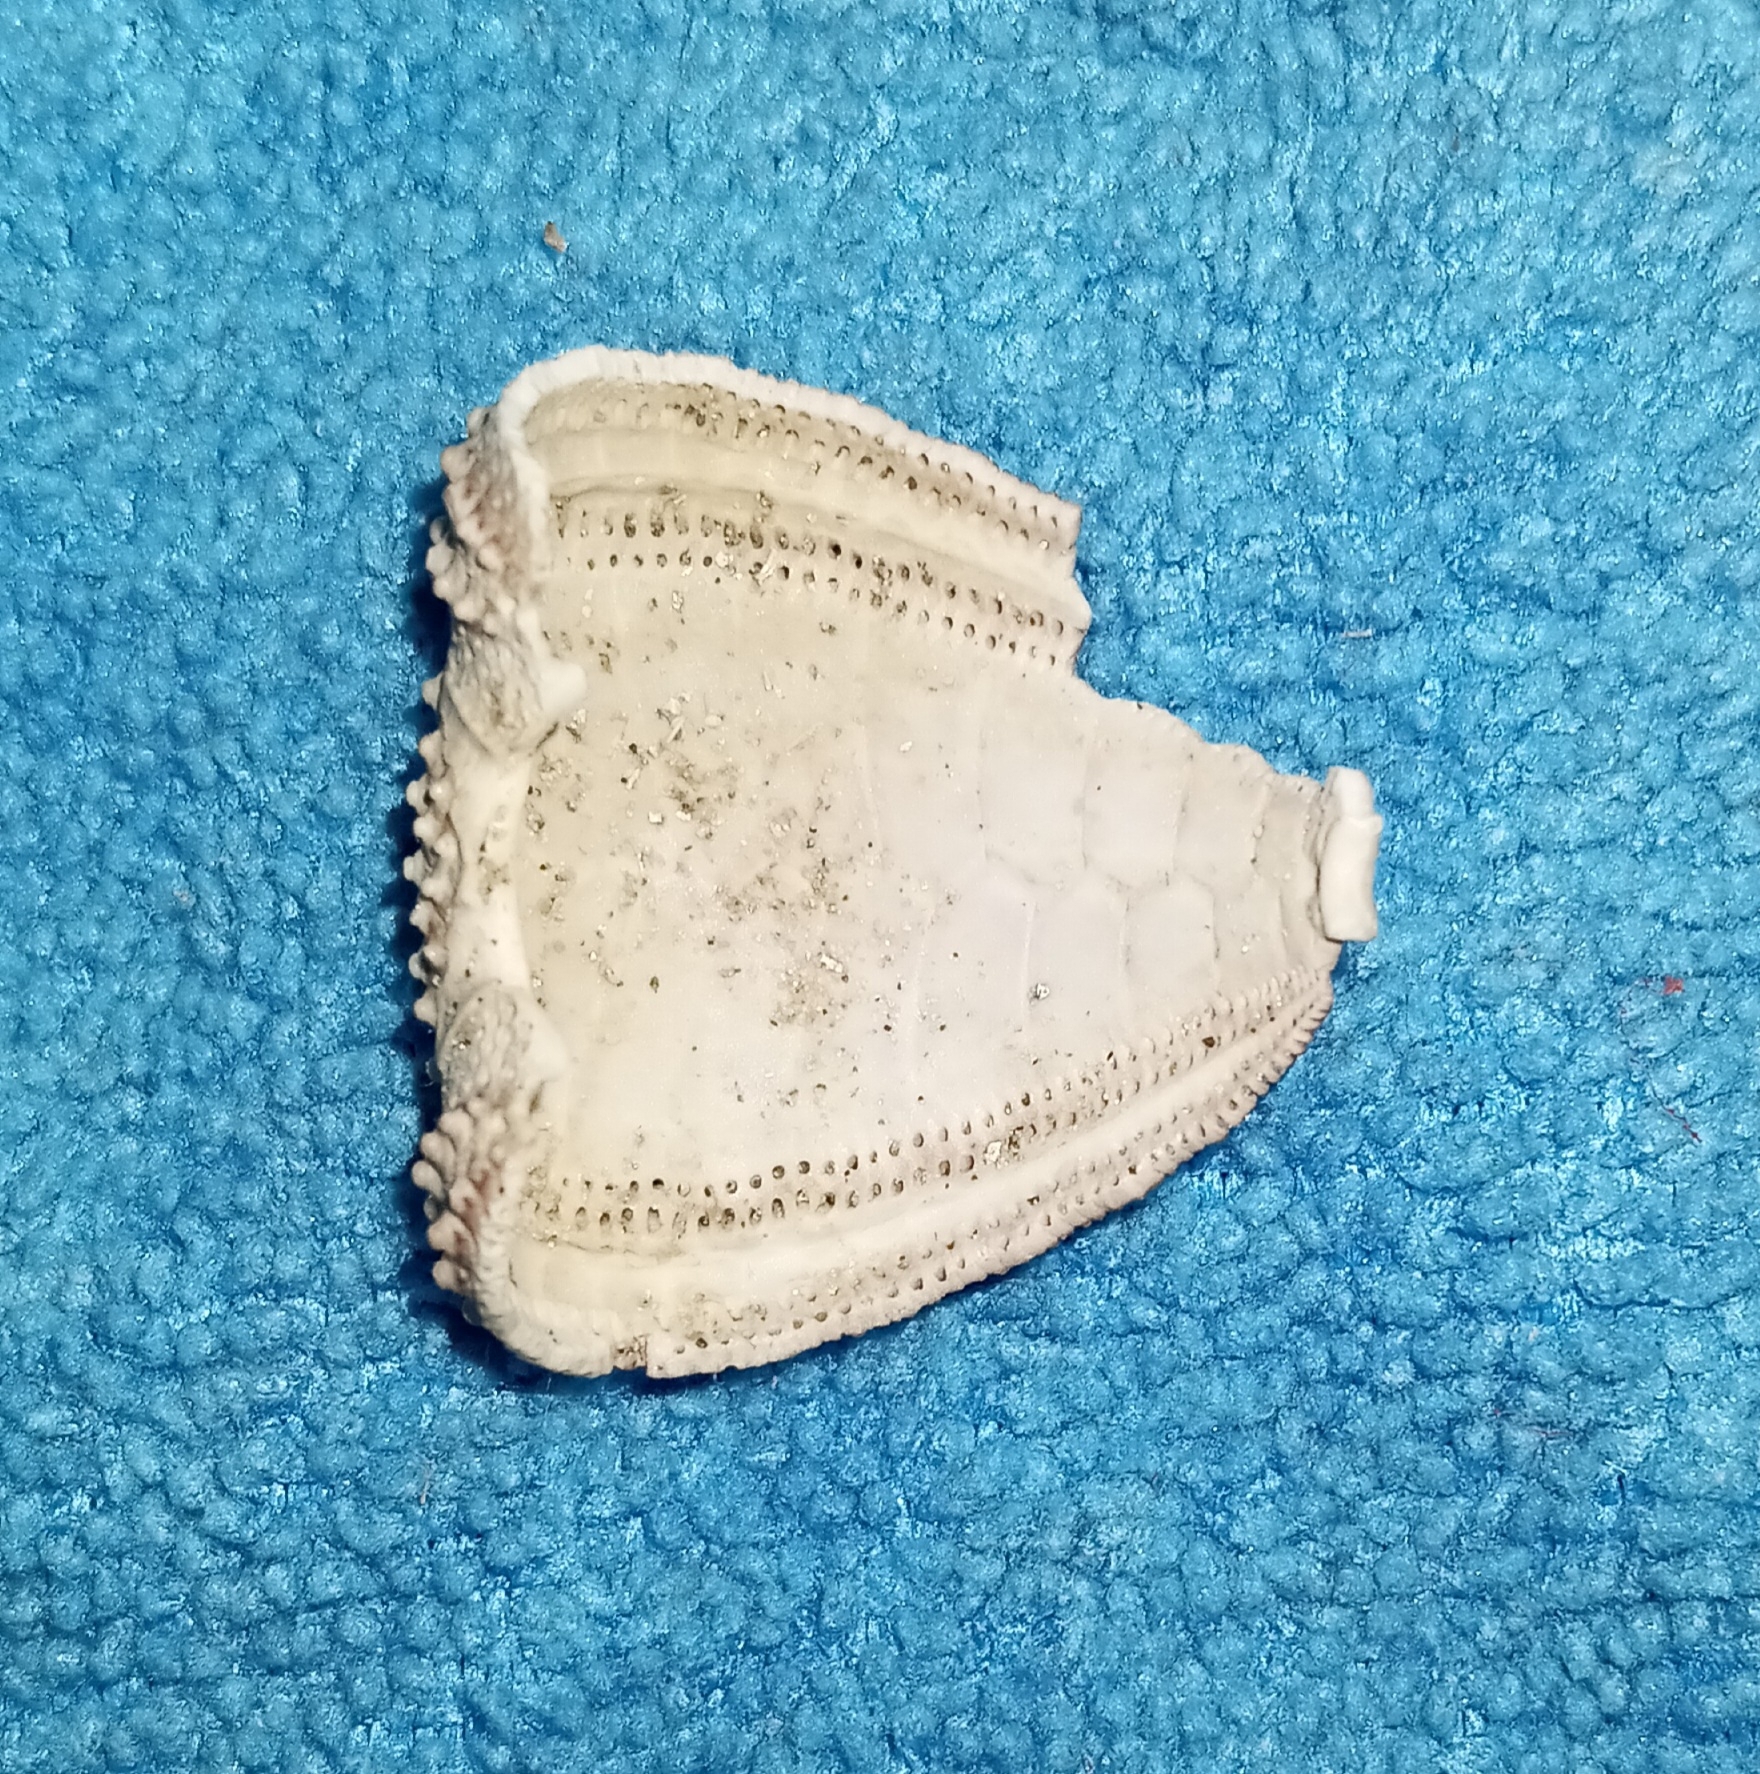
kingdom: Animalia
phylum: Echinodermata
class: Echinoidea
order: Arbacioida
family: Arbaciidae
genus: Arbacia
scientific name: Arbacia punctulata
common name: Purple-spined sea urchin
